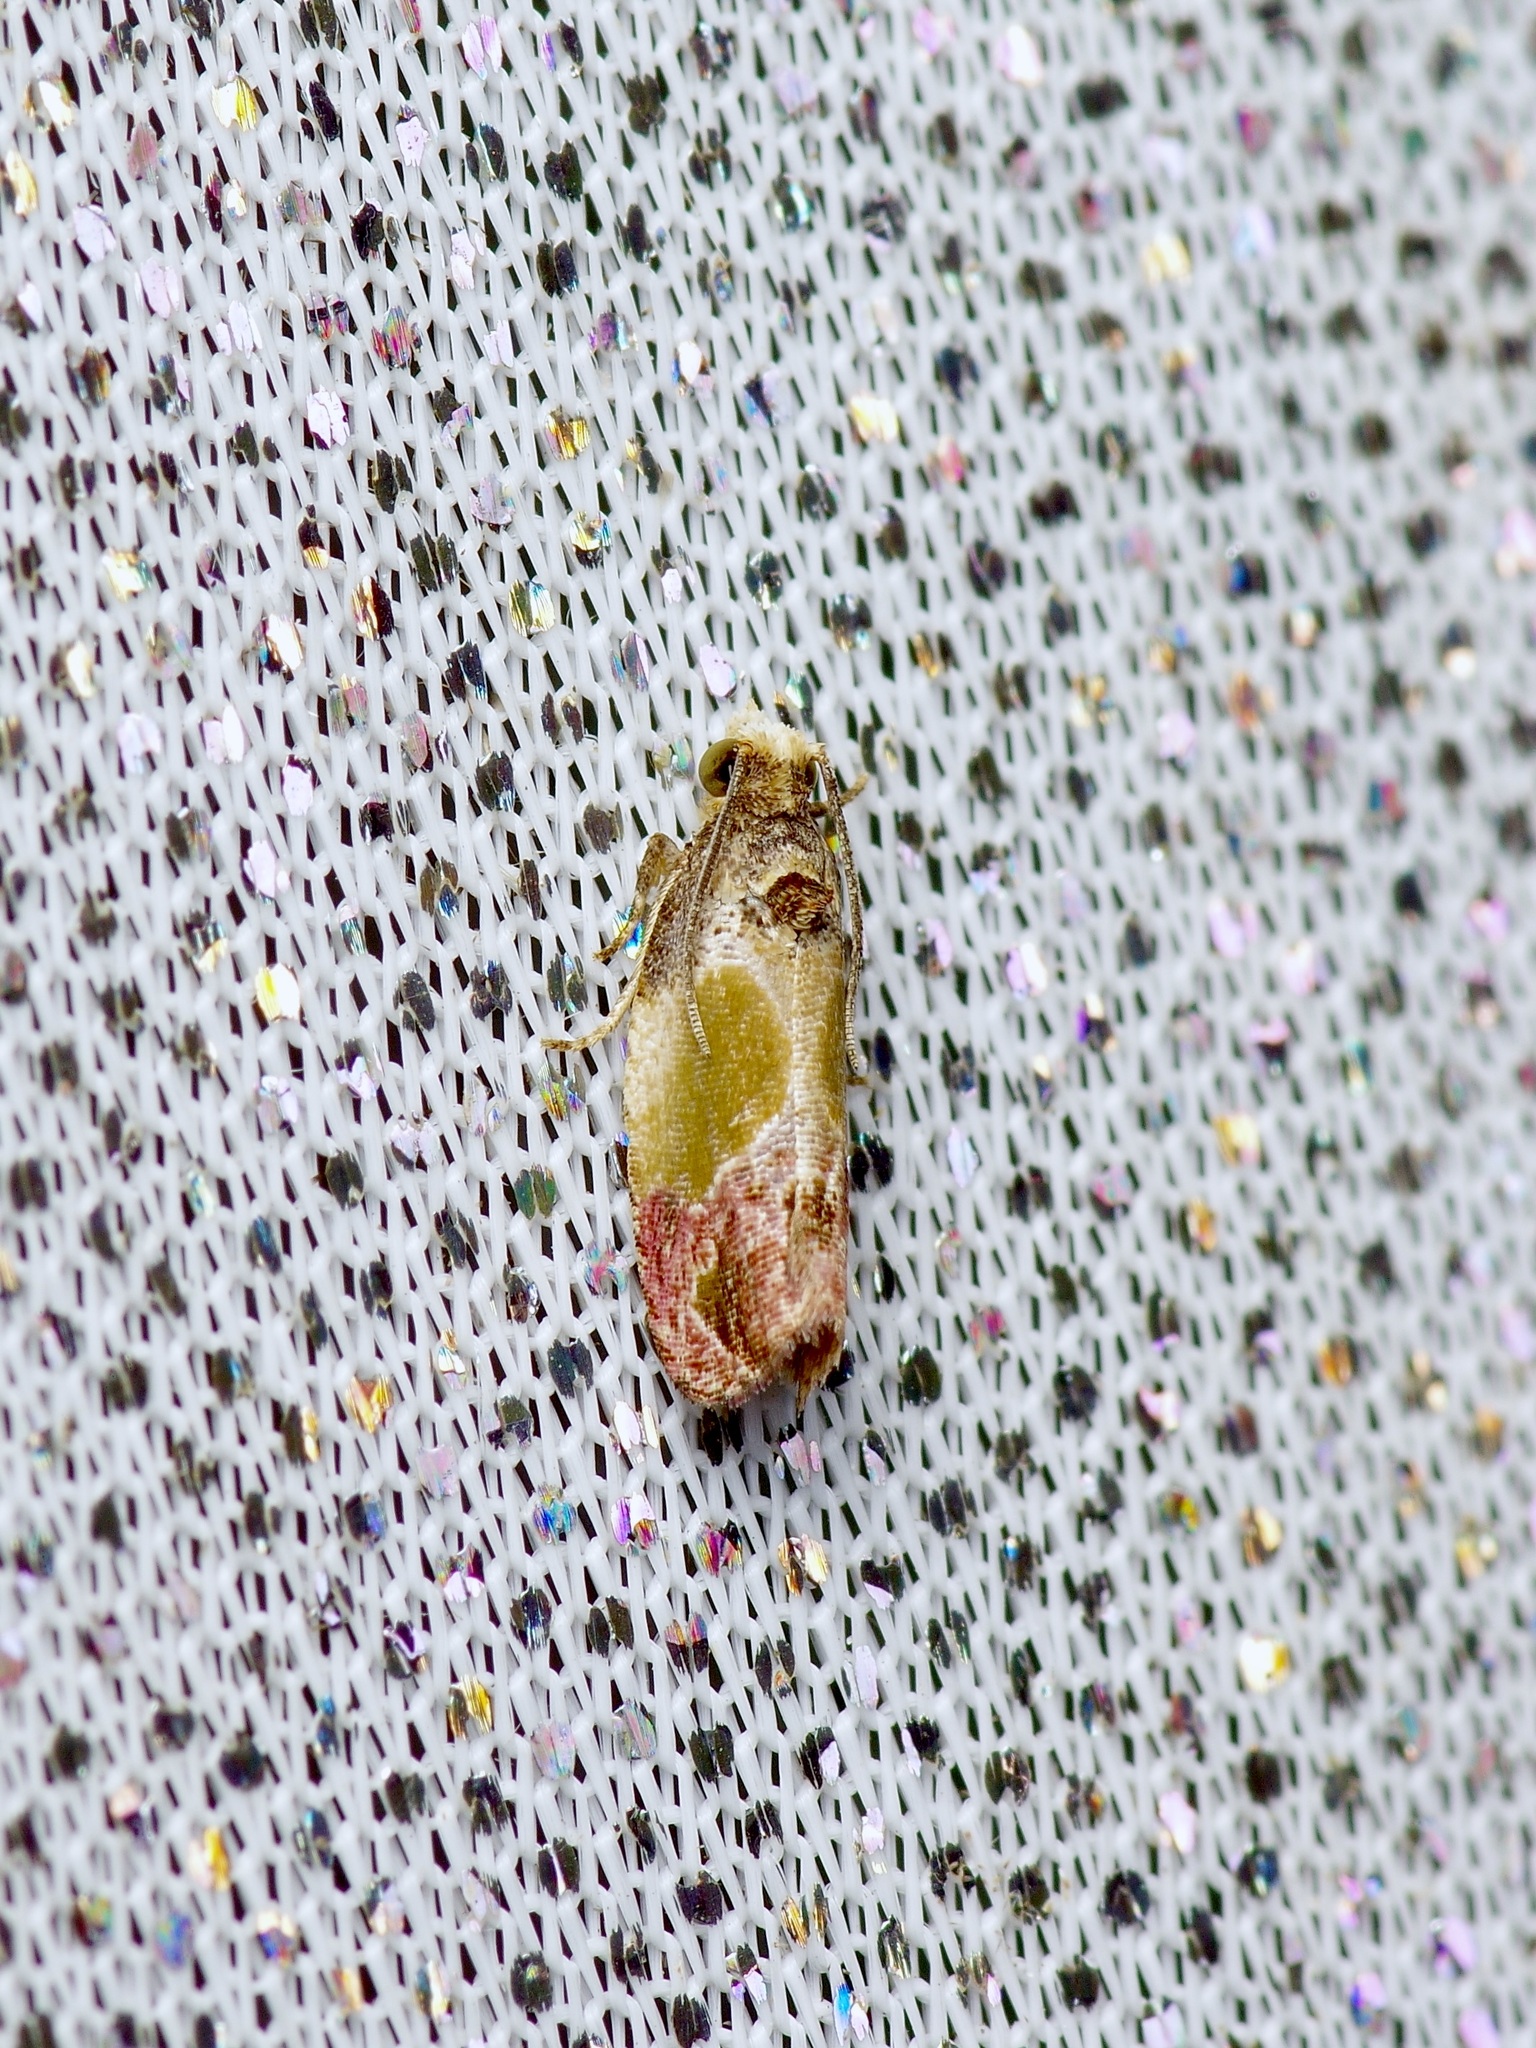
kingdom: Animalia
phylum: Arthropoda
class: Insecta
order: Lepidoptera
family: Tortricidae
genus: Eumarozia
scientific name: Eumarozia malachitana
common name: Sculptured moth
